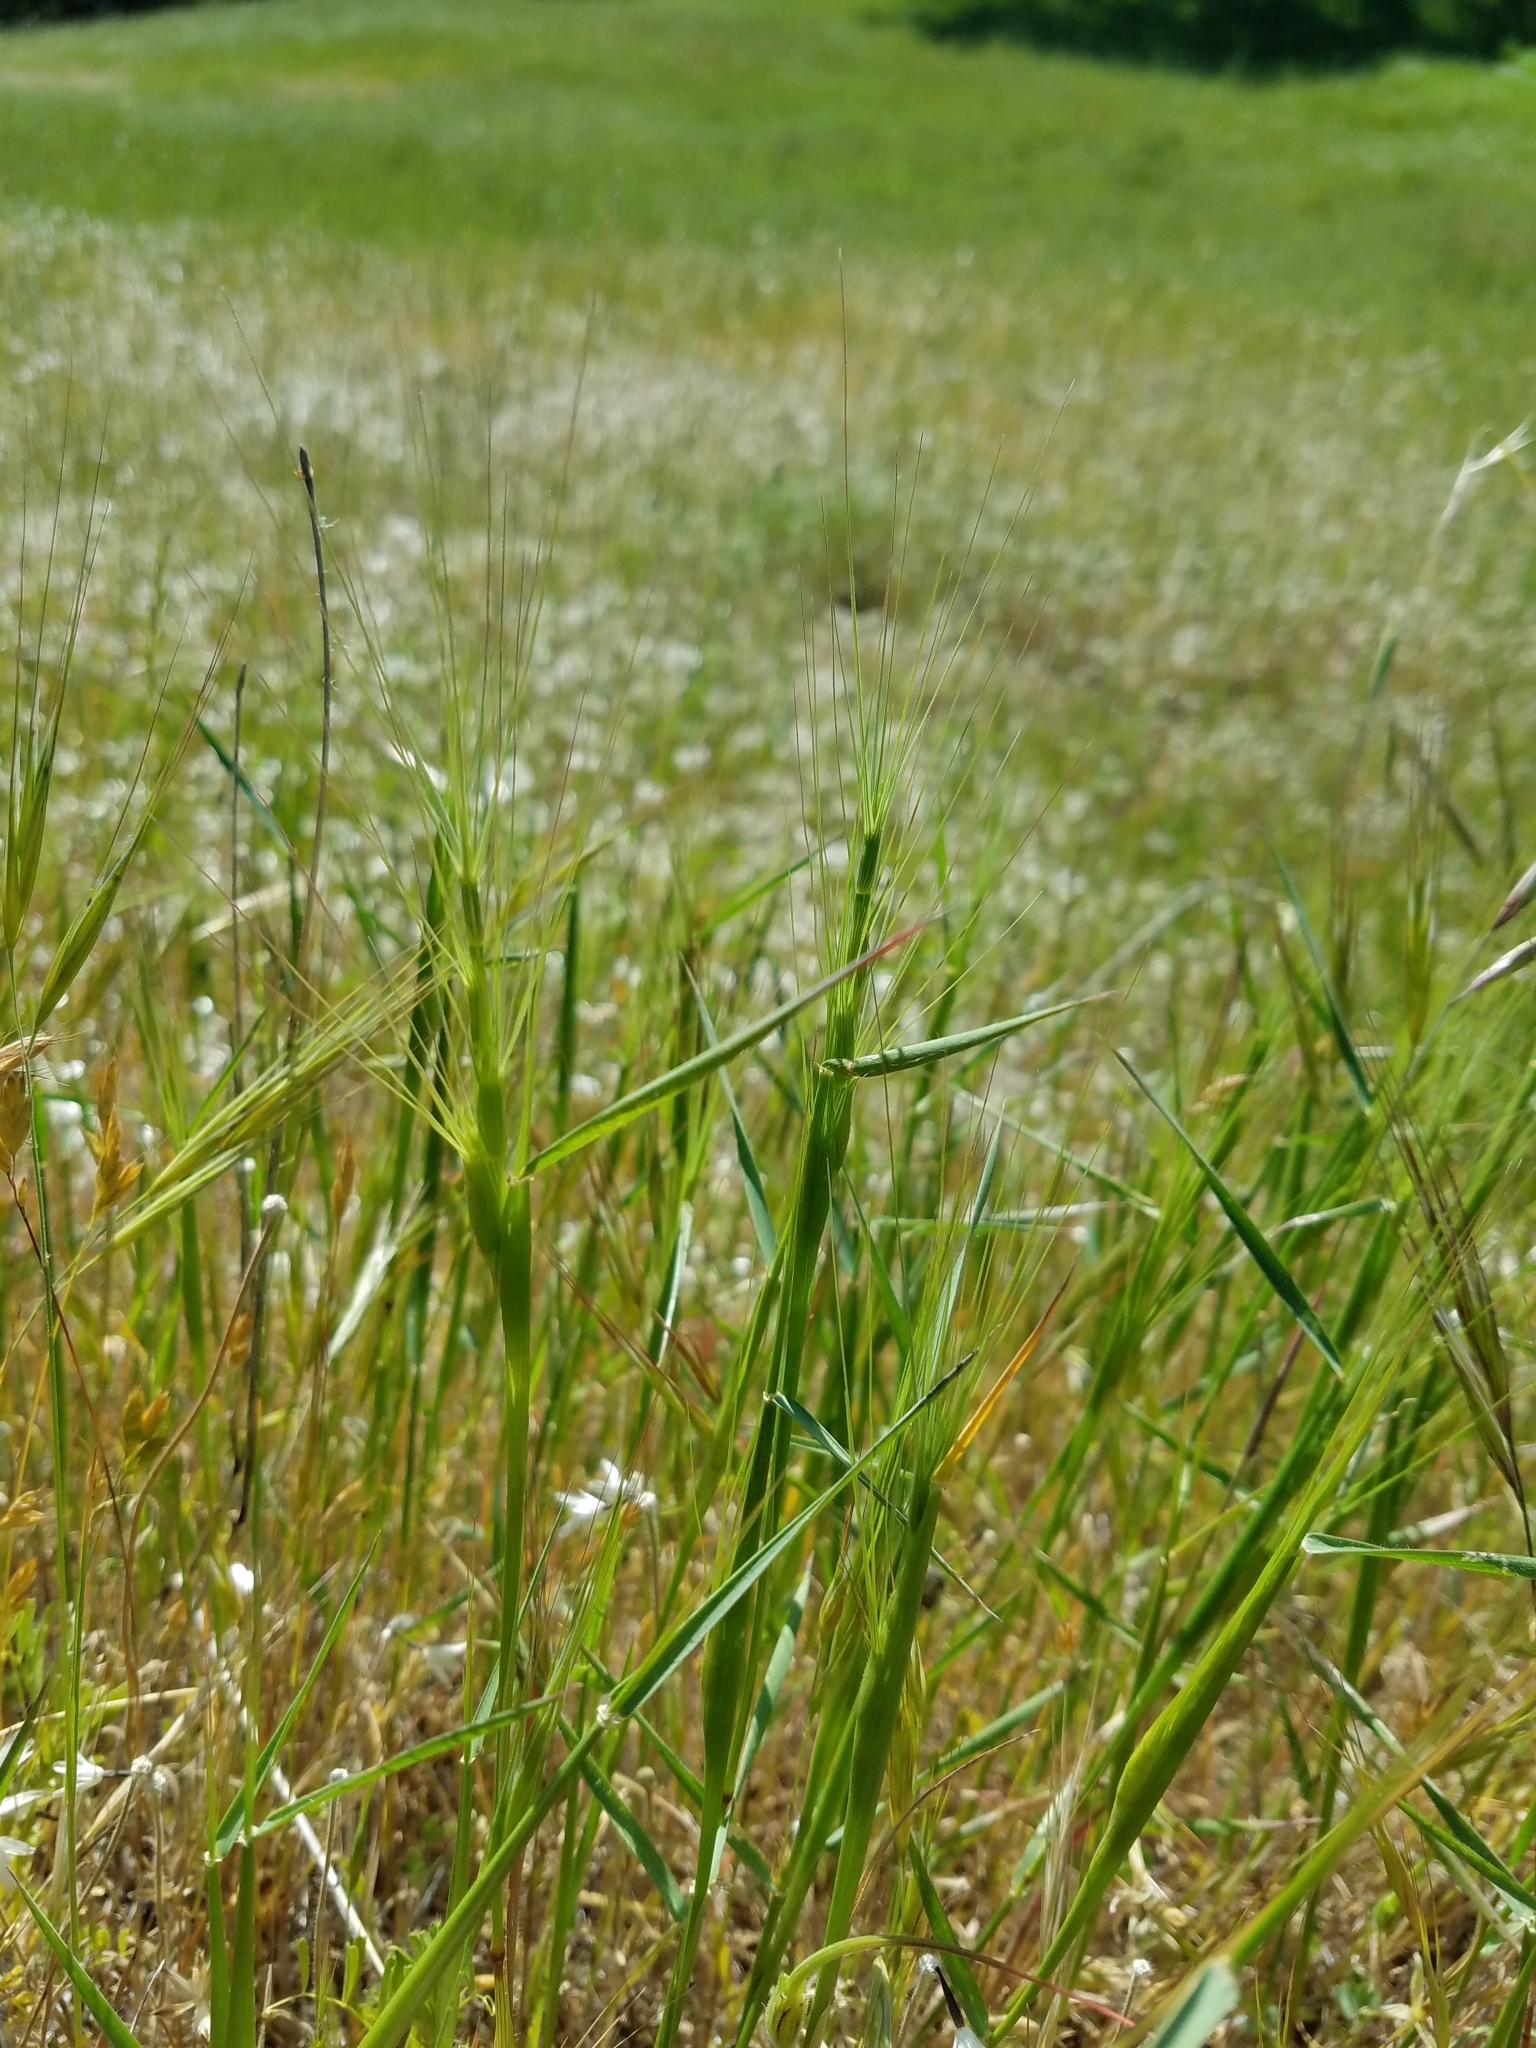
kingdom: Plantae
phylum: Tracheophyta
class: Liliopsida
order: Poales
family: Poaceae
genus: Aegilops
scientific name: Aegilops triuncialis
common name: Barb goat grass
